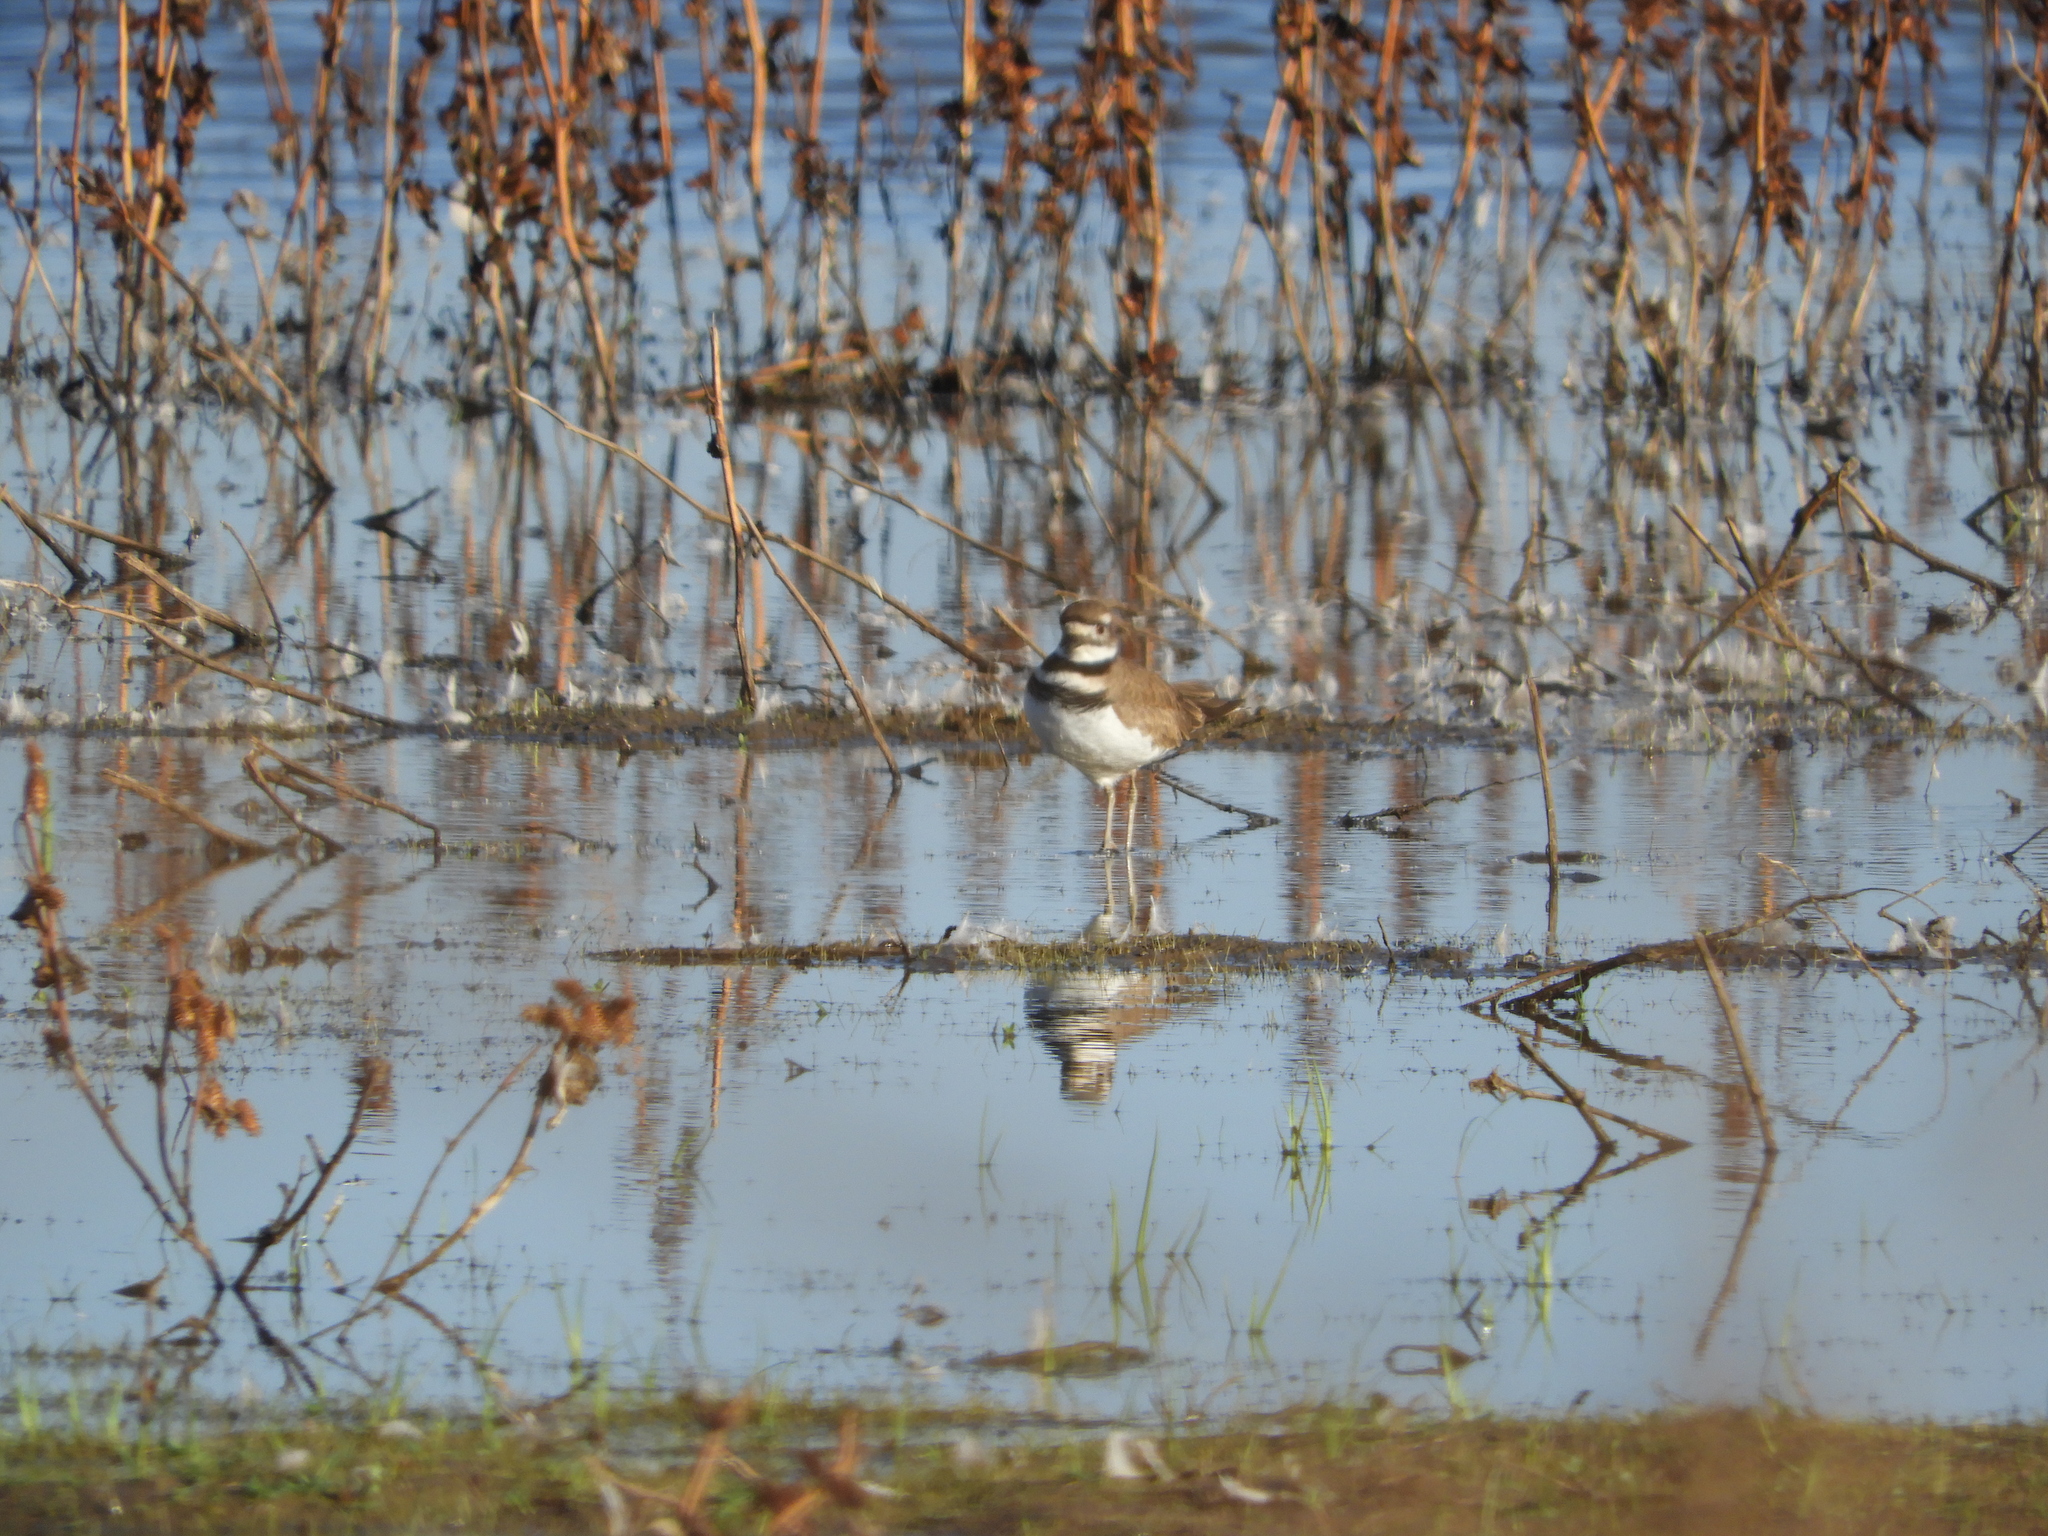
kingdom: Animalia
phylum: Chordata
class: Aves
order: Charadriiformes
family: Charadriidae
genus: Charadrius
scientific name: Charadrius vociferus
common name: Killdeer
